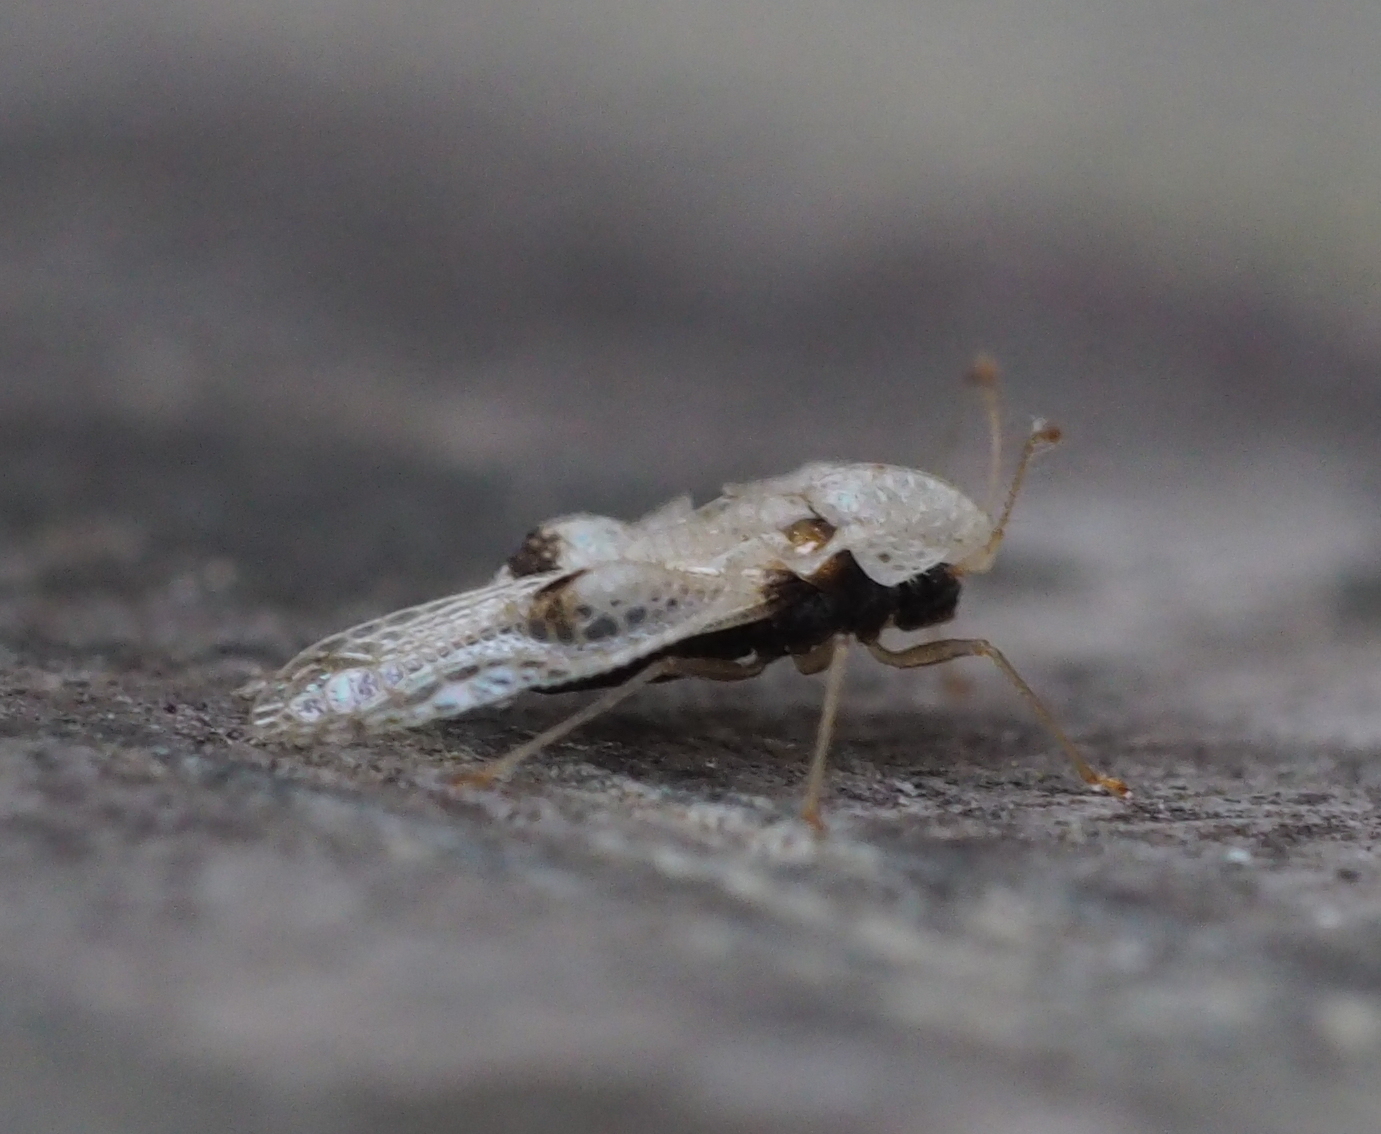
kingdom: Animalia
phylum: Arthropoda
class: Insecta
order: Hemiptera
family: Tingidae
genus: Corythucha
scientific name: Corythucha ciliata
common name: Sycamore lace bug
